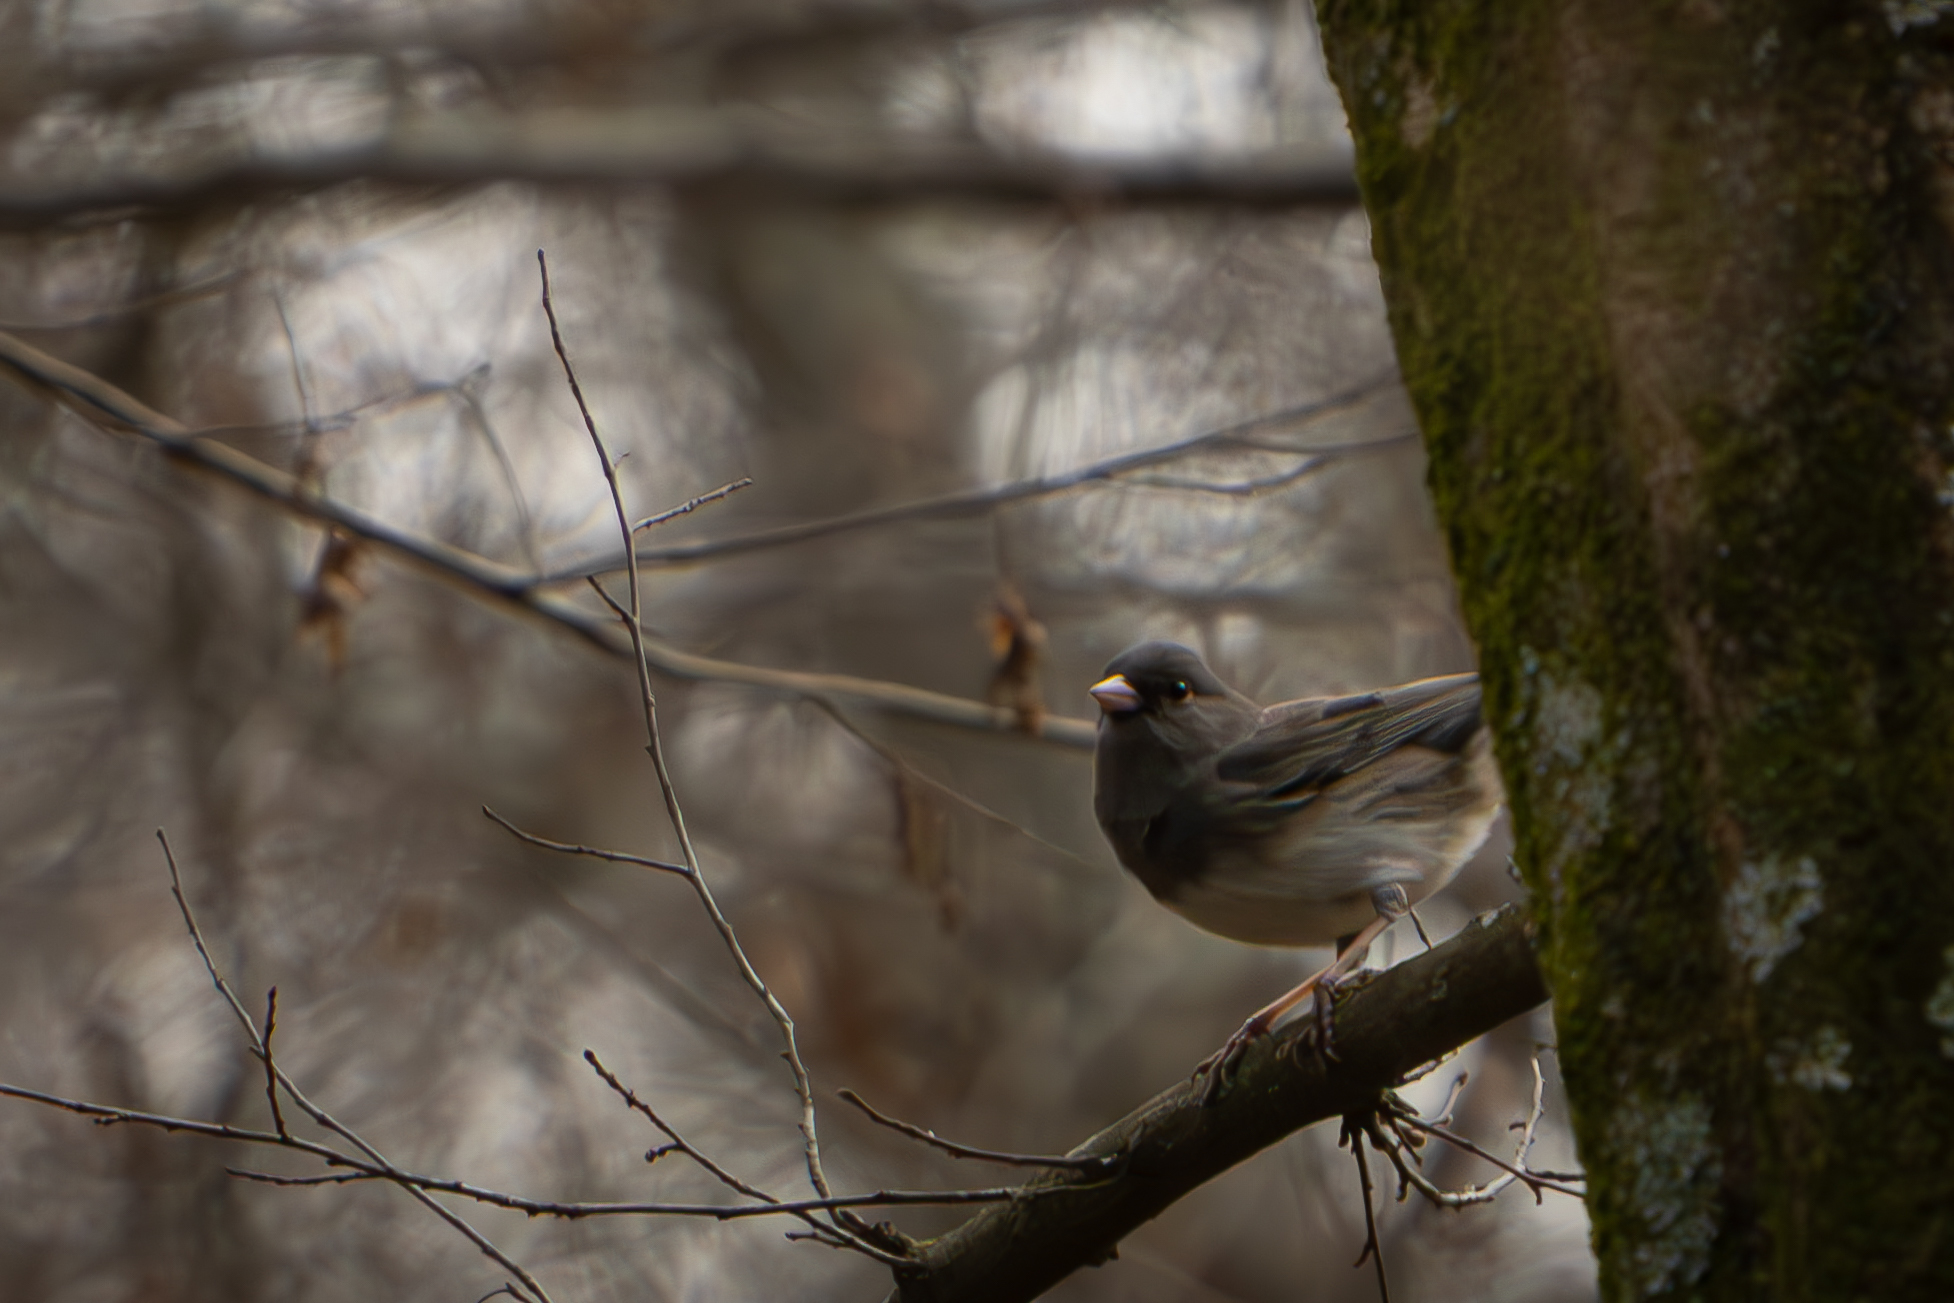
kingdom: Animalia
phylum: Chordata
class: Aves
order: Passeriformes
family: Passerellidae
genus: Junco
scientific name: Junco hyemalis
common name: Dark-eyed junco
